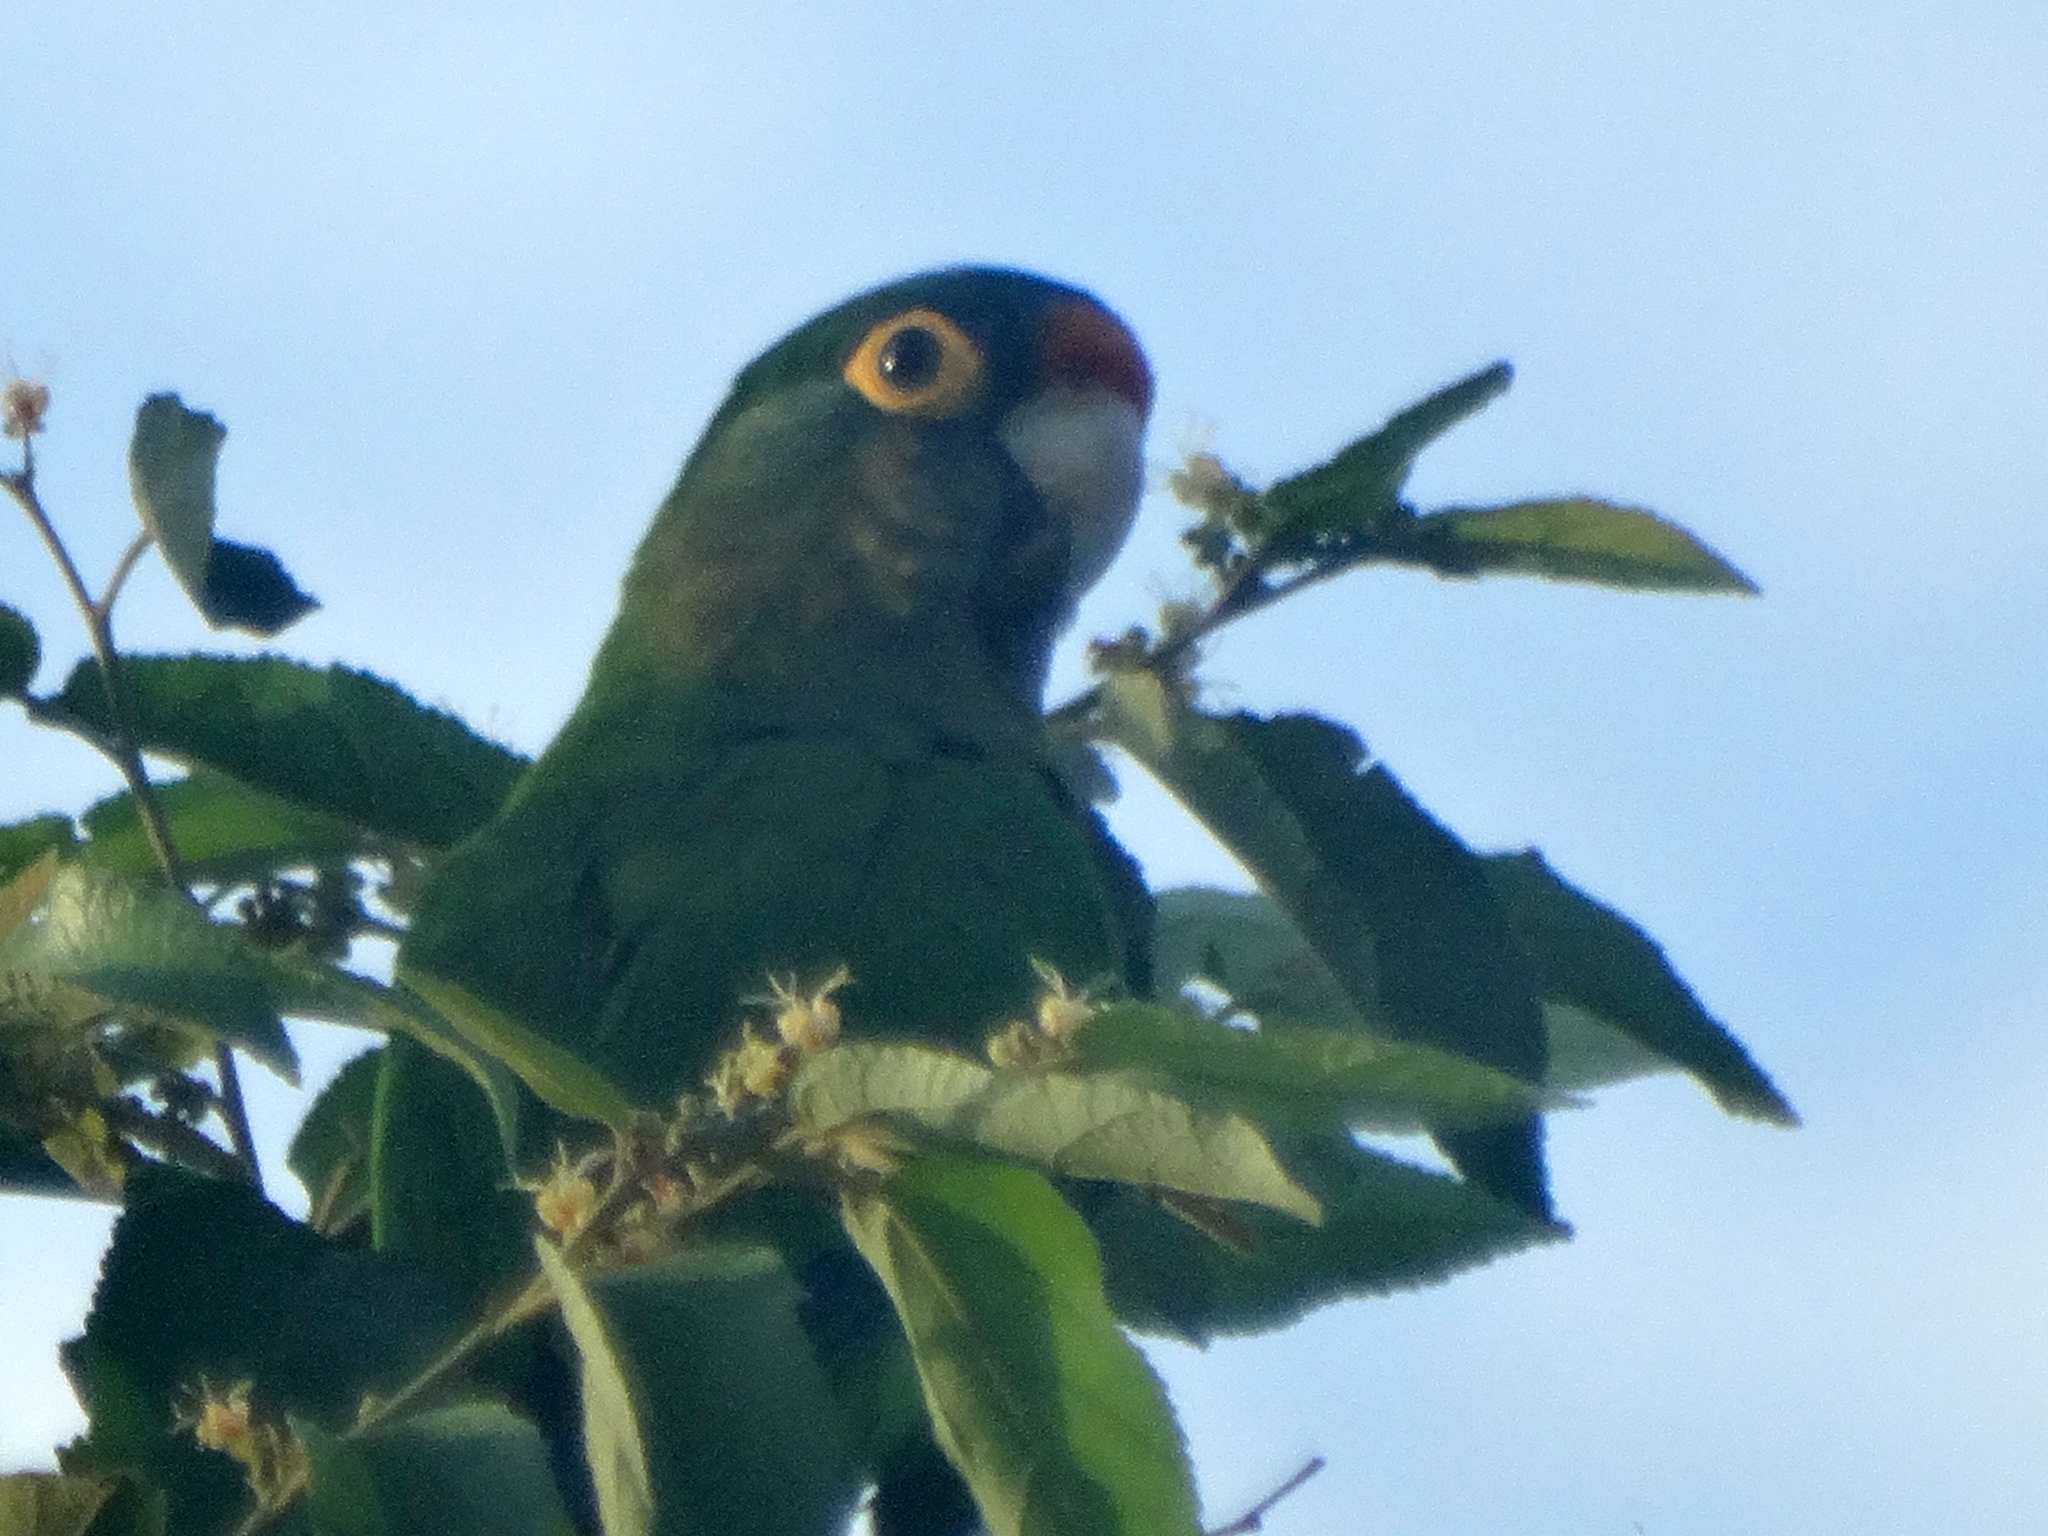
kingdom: Animalia
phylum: Chordata
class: Aves
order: Psittaciformes
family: Psittacidae
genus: Aratinga
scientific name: Aratinga canicularis
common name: Orange-fronted parakeet
